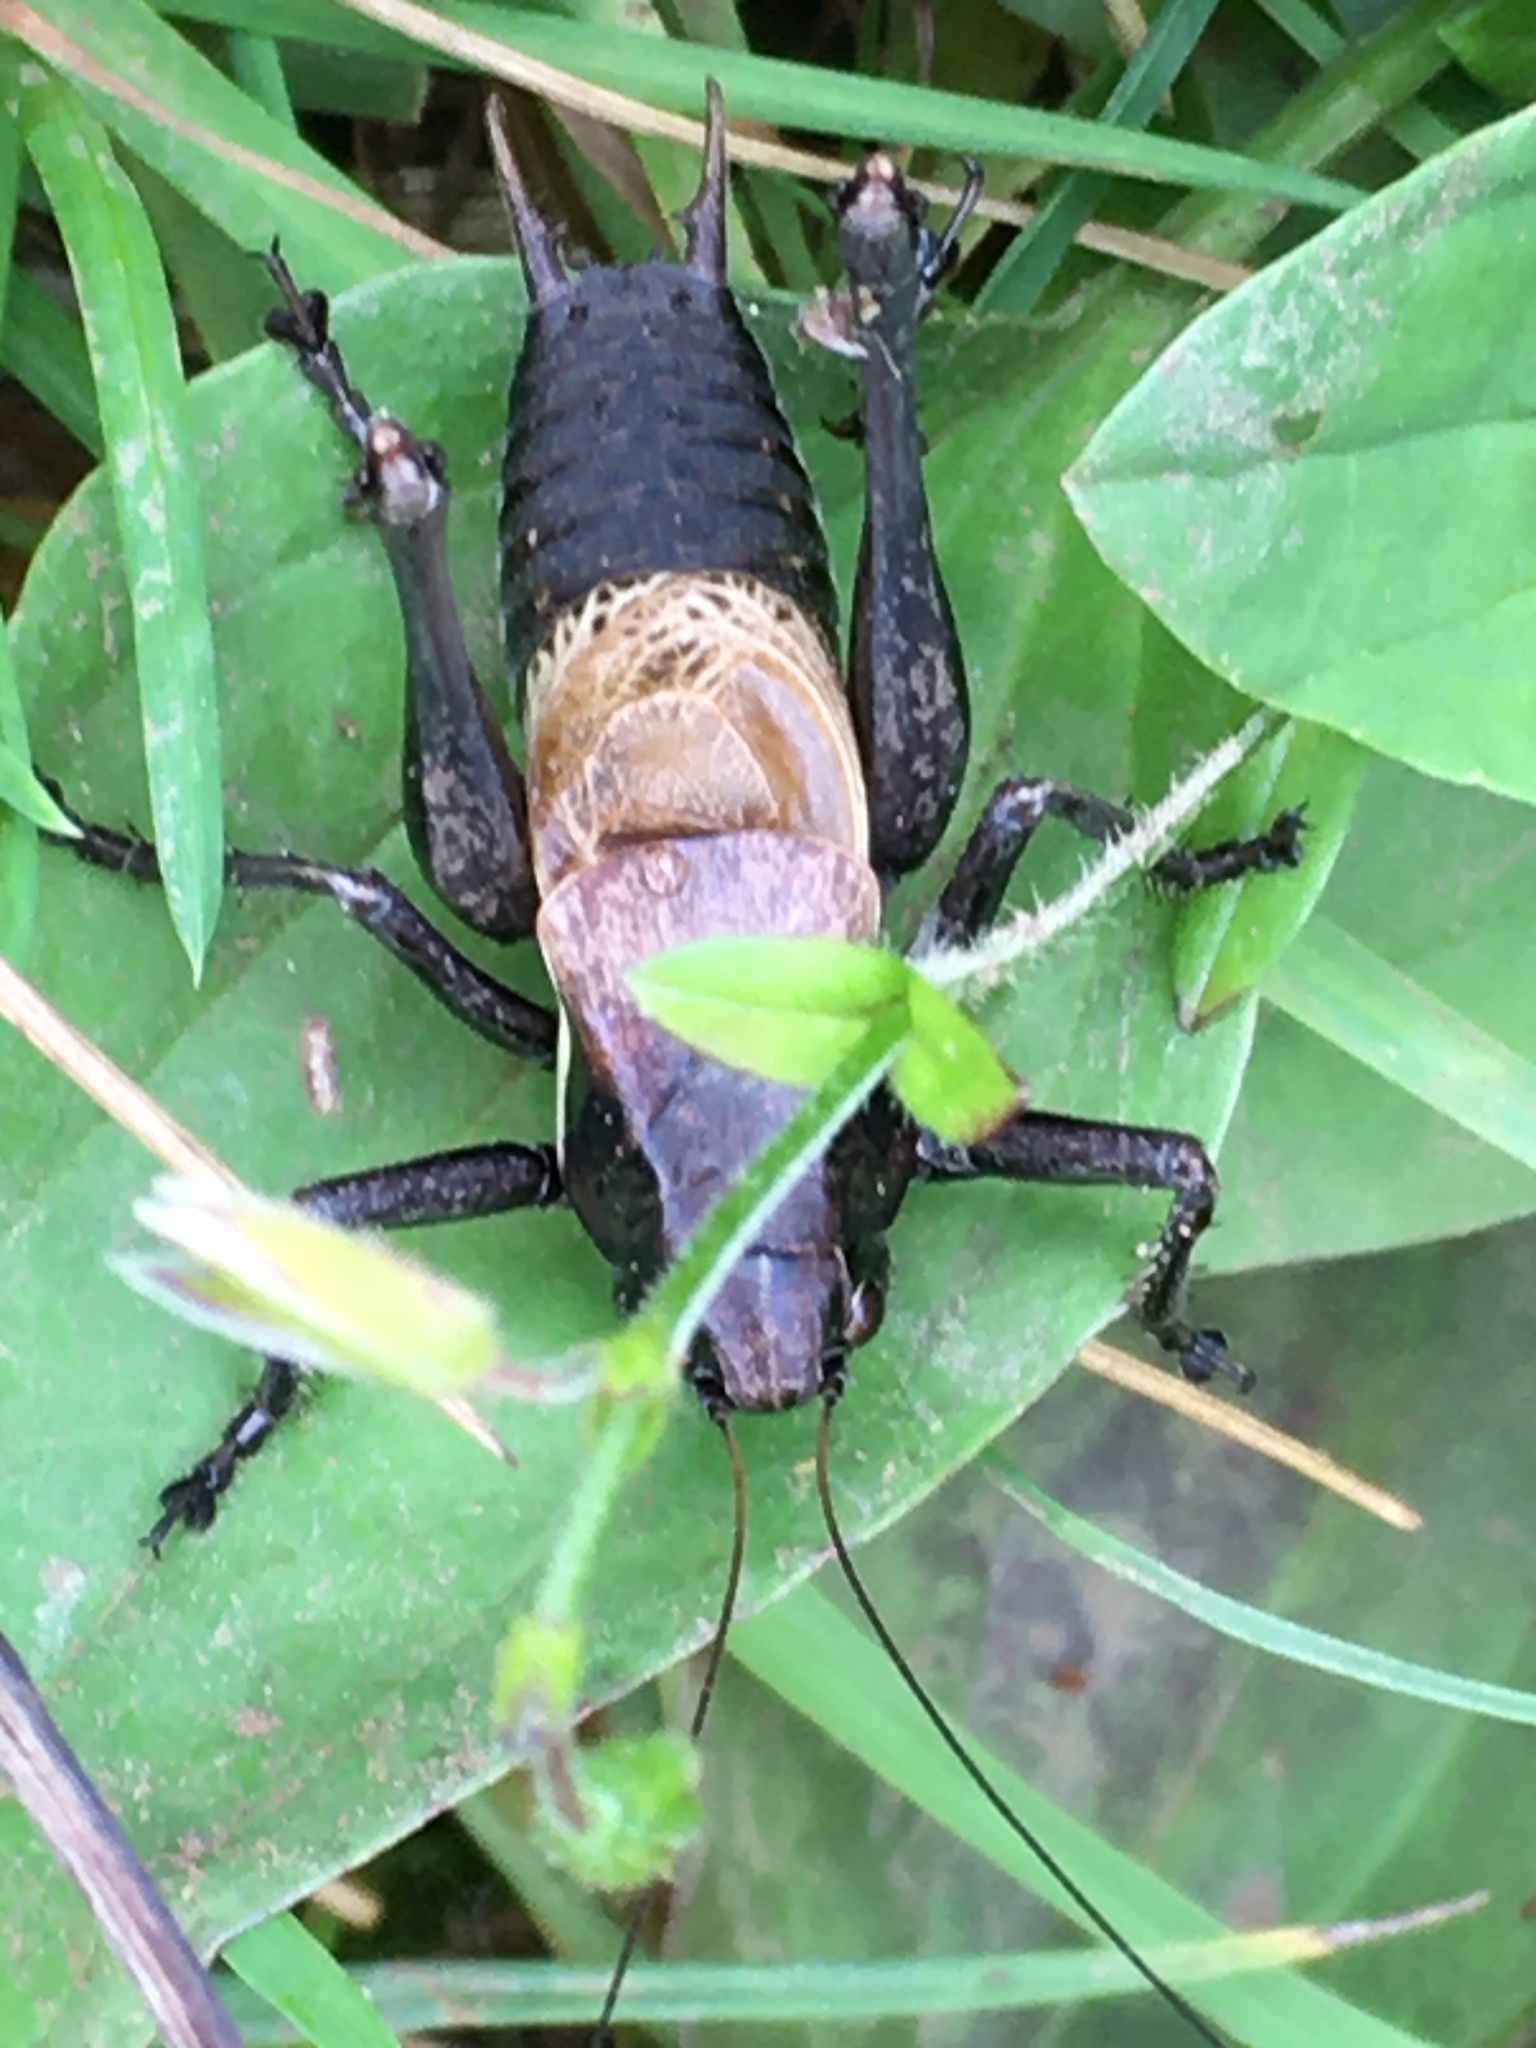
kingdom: Animalia
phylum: Arthropoda
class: Insecta
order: Orthoptera
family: Tettigoniidae
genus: Pholidoptera
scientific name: Pholidoptera aptera
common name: Alpine dark bush-cricket
